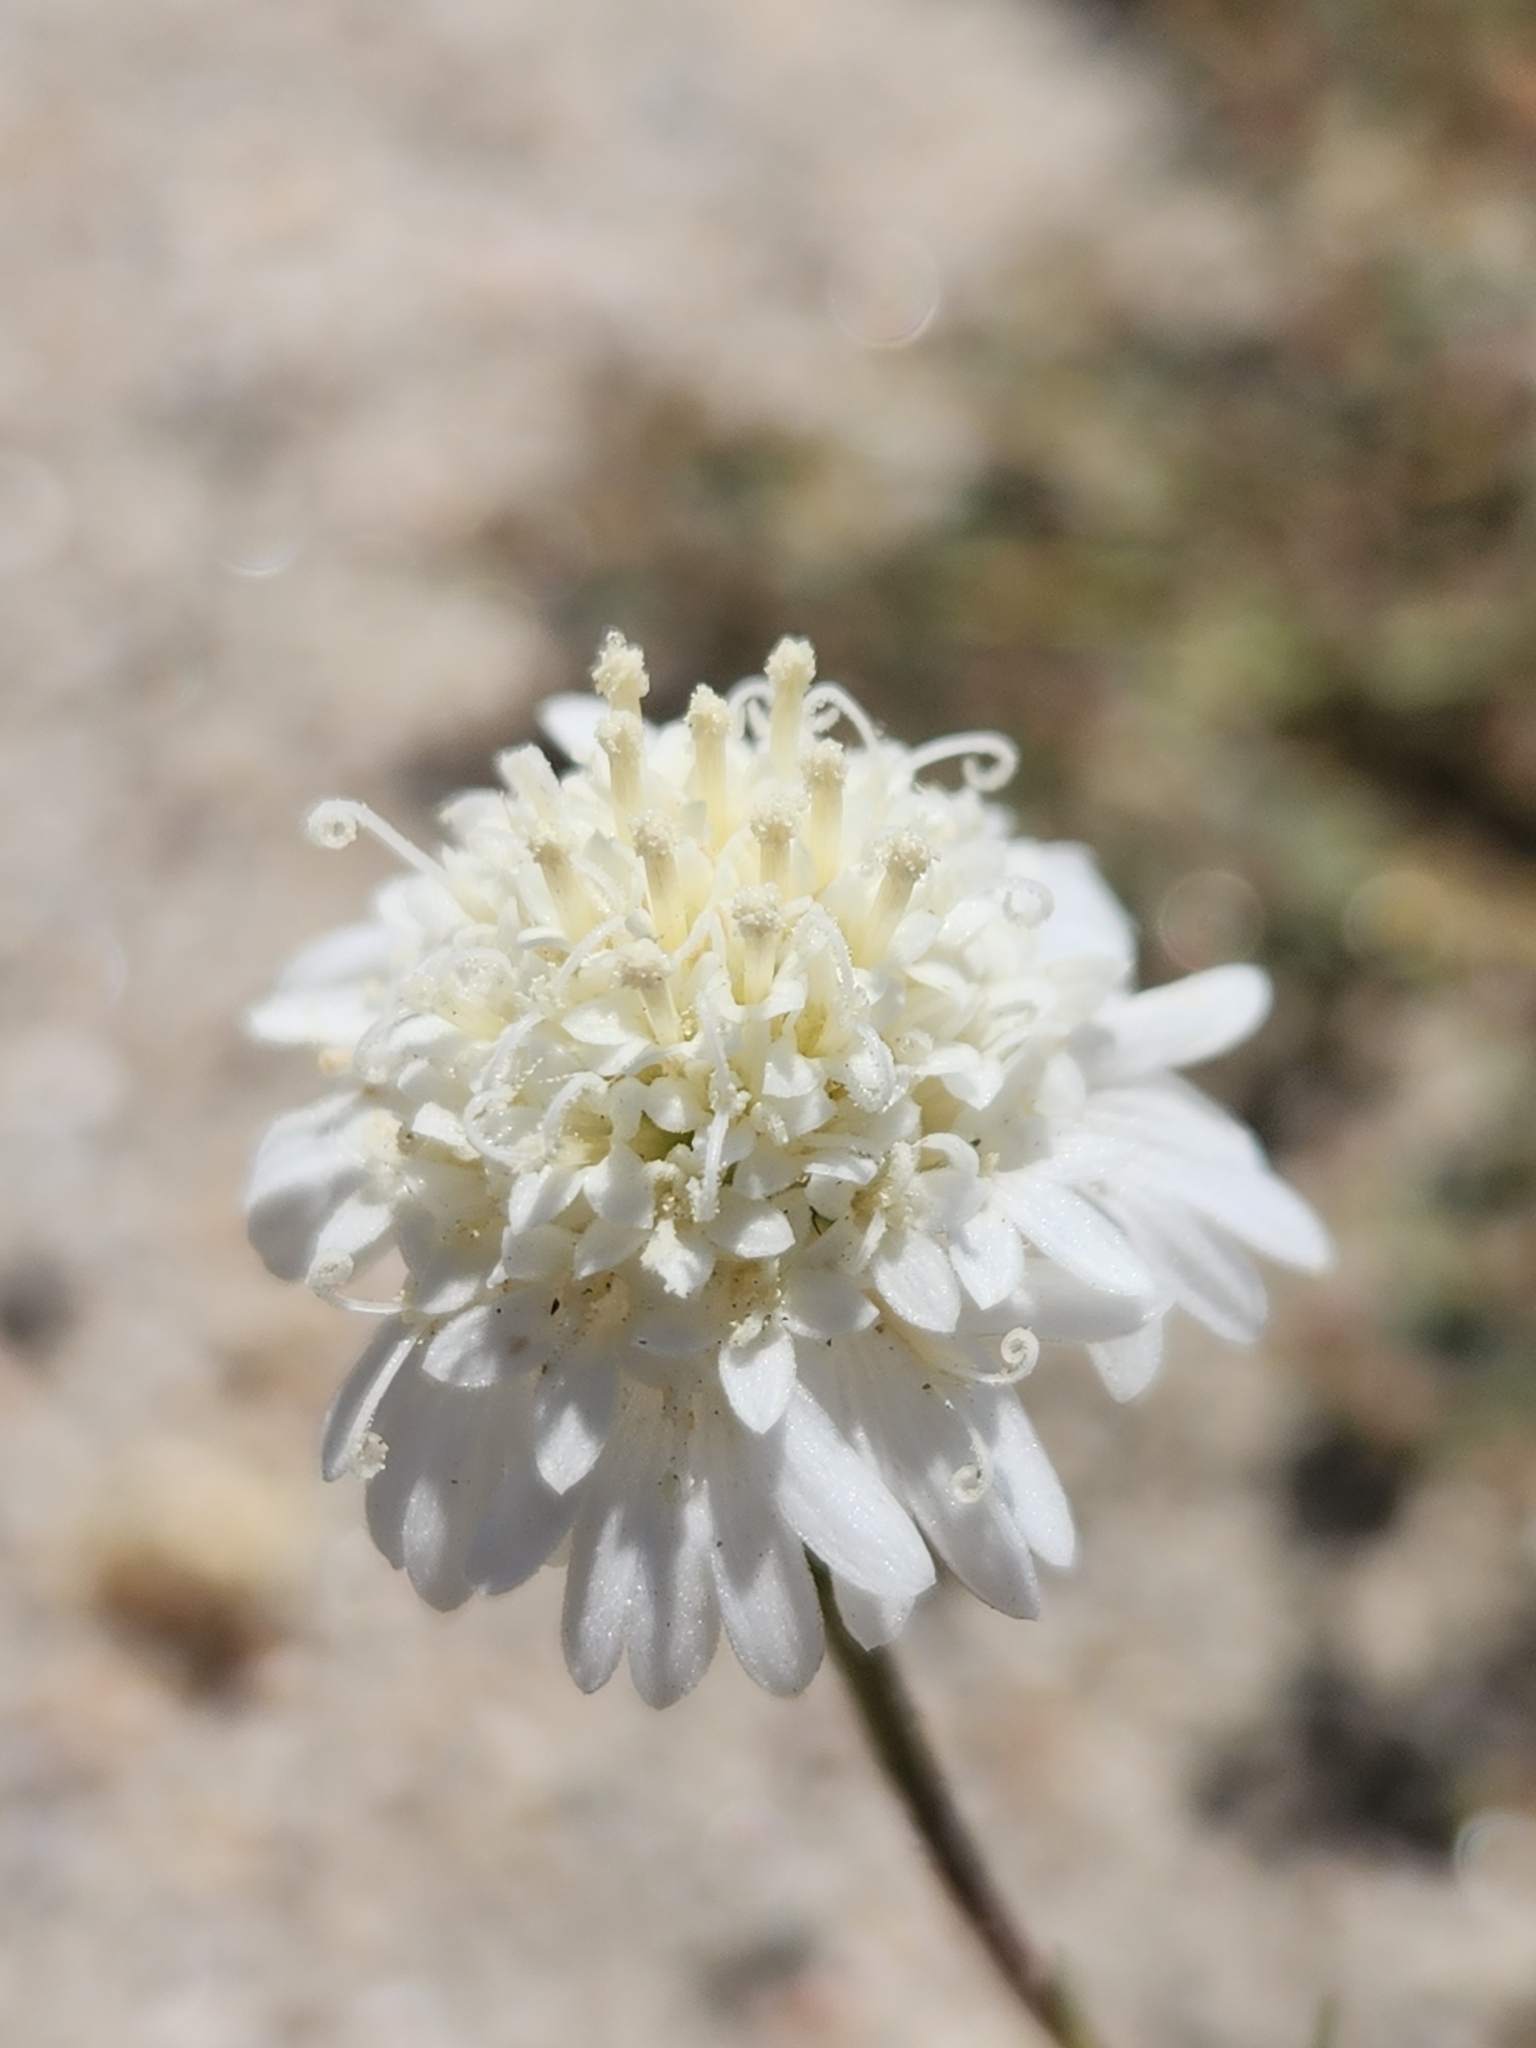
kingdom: Plantae
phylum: Tracheophyta
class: Magnoliopsida
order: Asterales
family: Asteraceae
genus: Chaenactis
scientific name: Chaenactis fremontii
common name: Fremont pincushion
